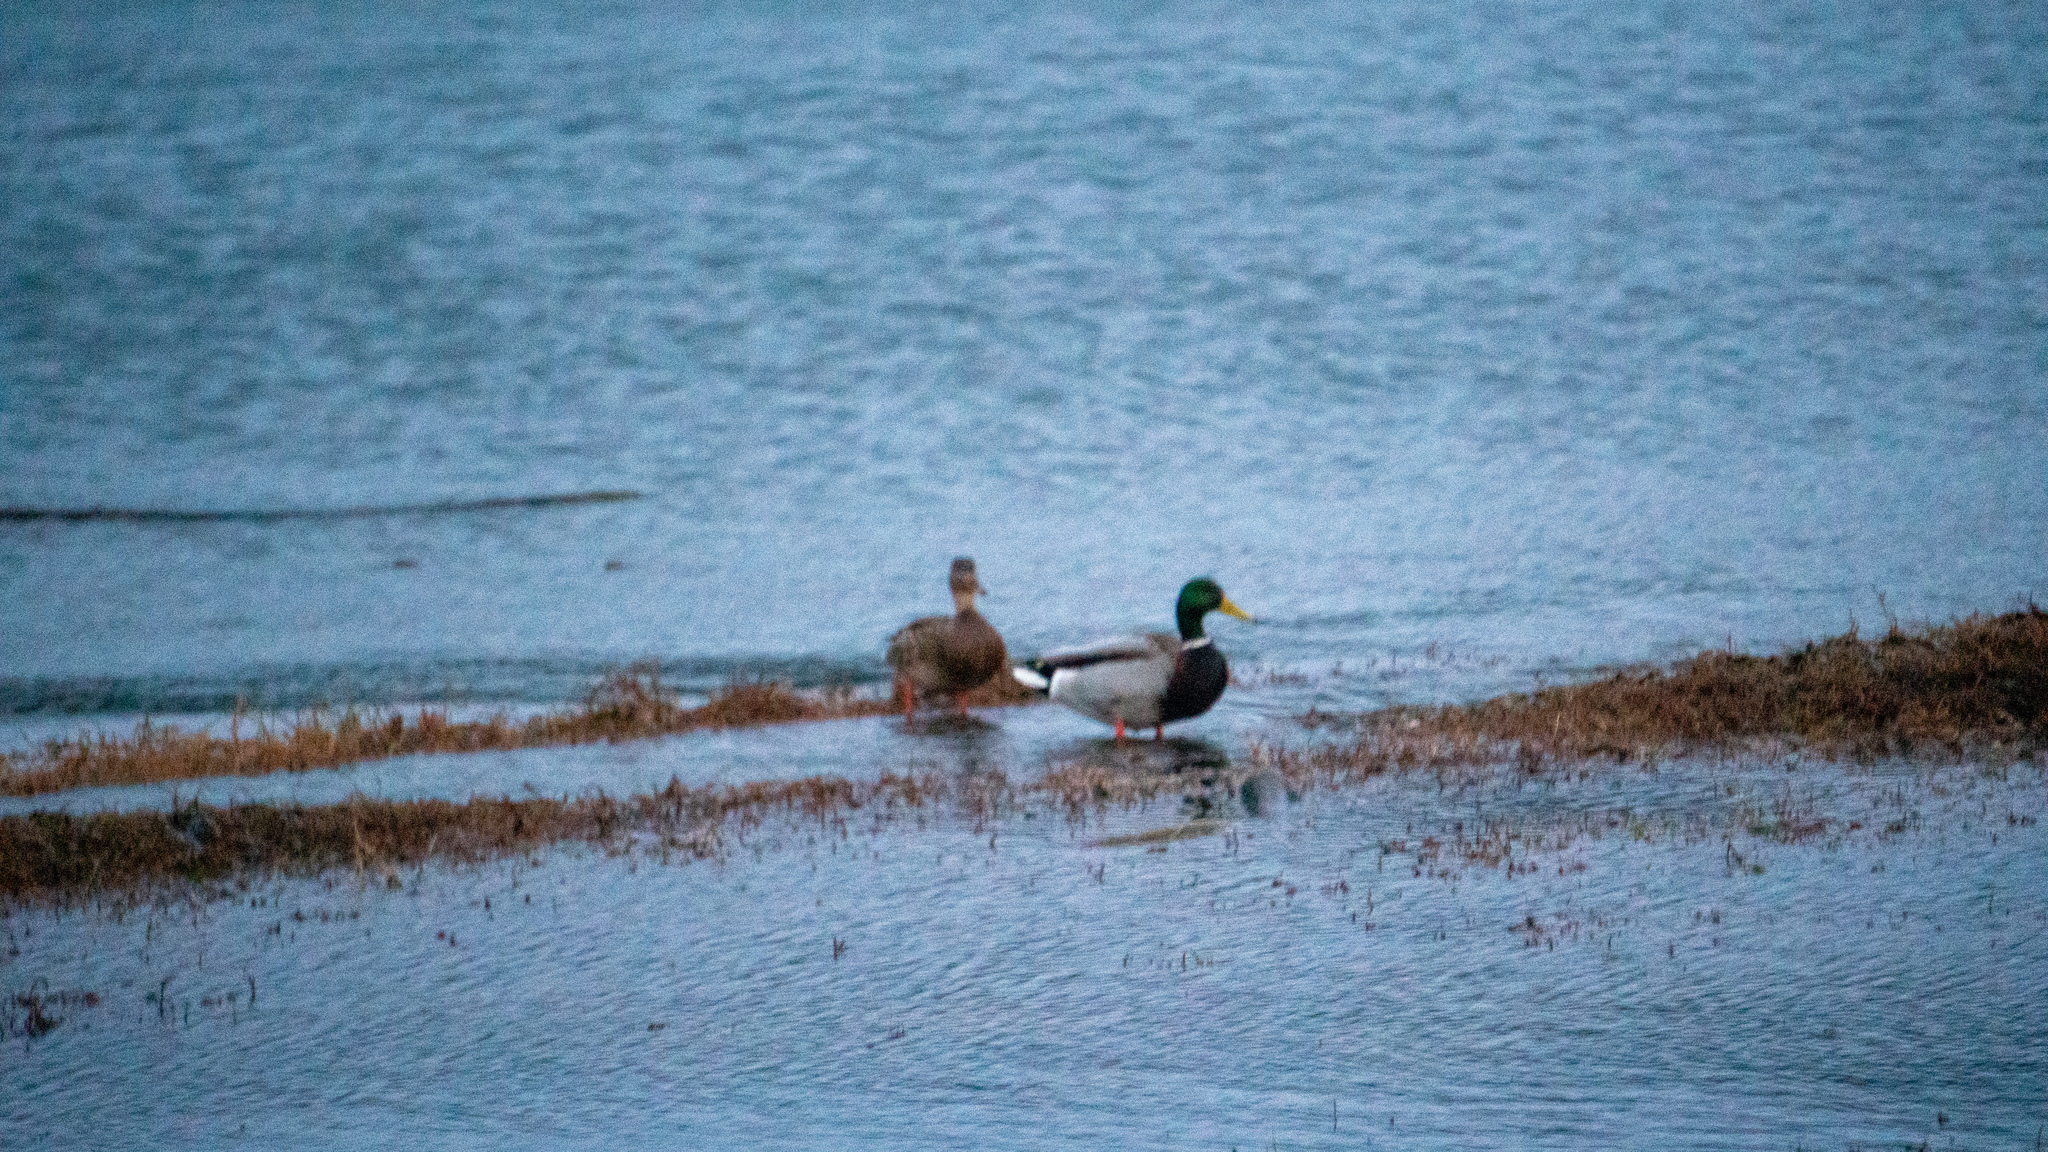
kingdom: Animalia
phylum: Chordata
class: Aves
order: Anseriformes
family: Anatidae
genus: Anas
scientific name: Anas platyrhynchos
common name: Mallard
